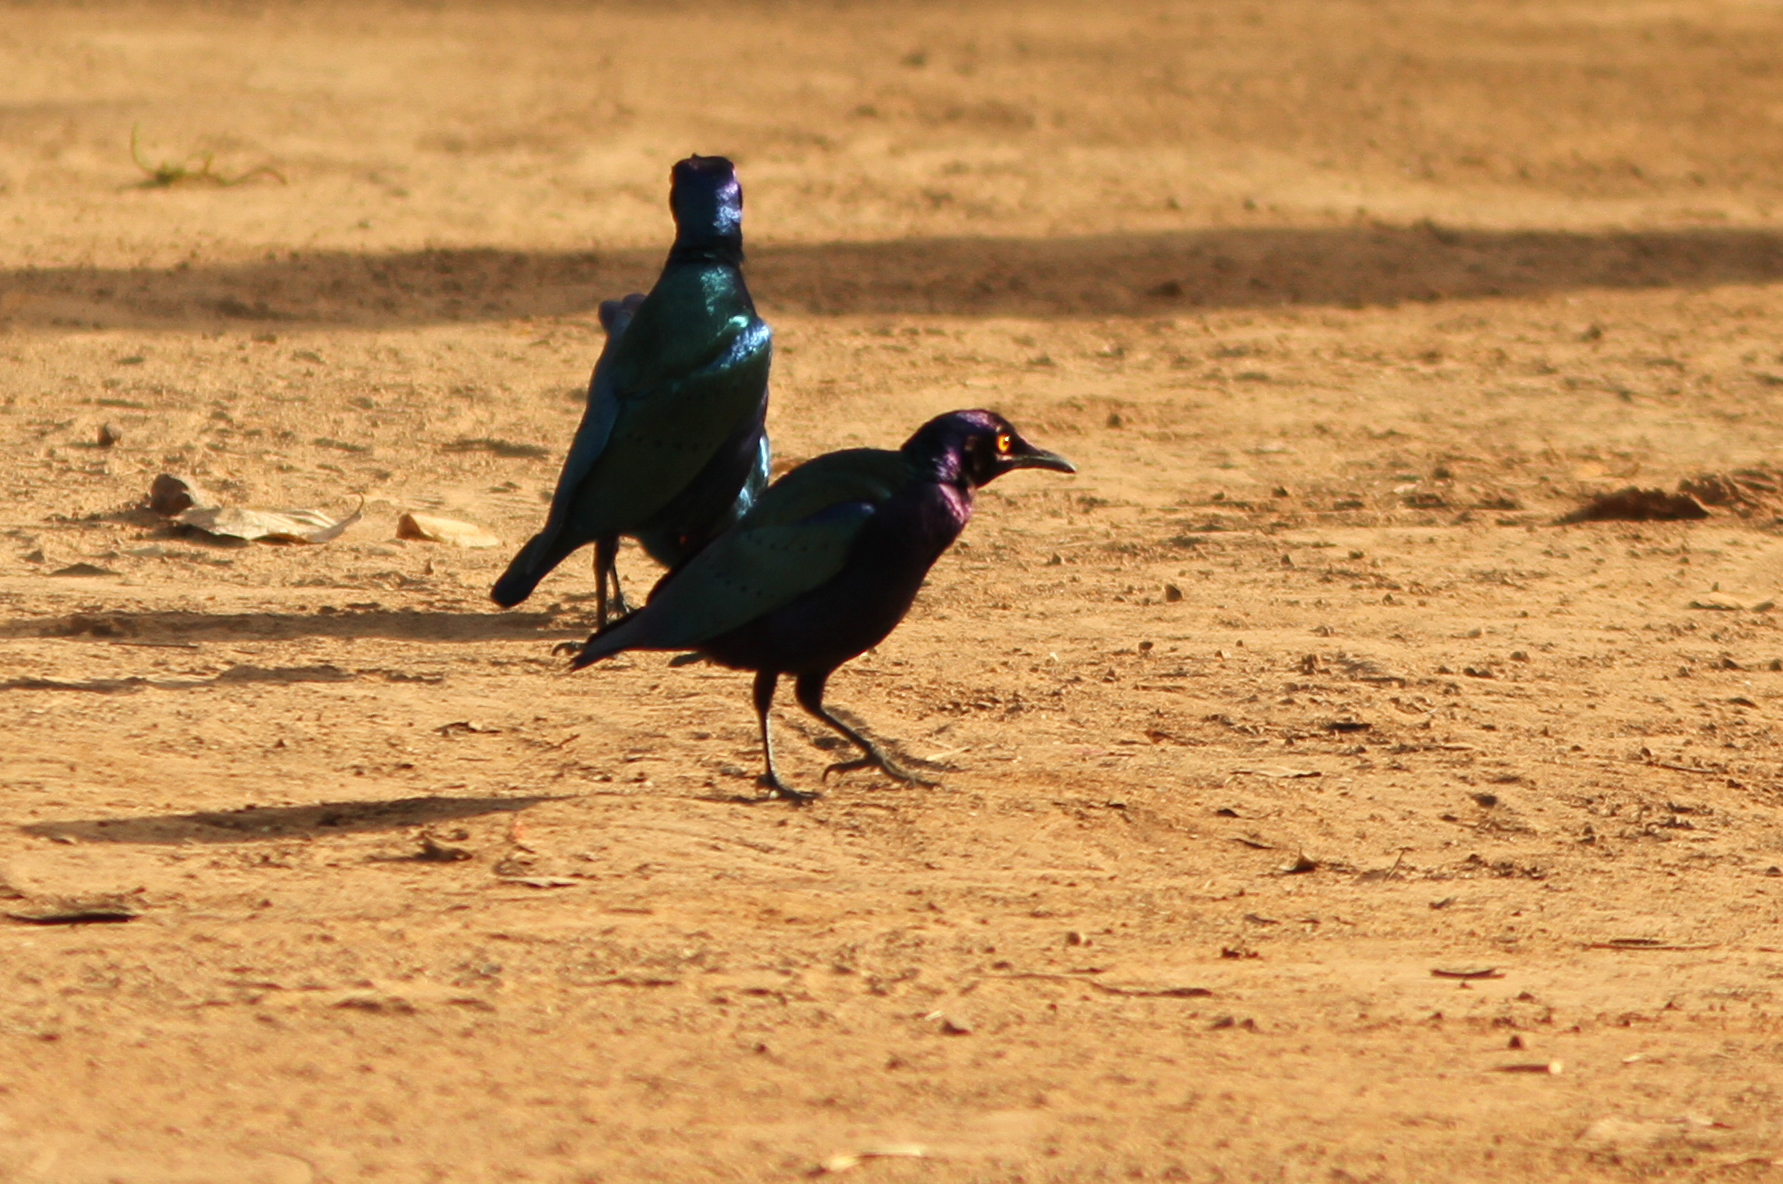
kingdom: Animalia
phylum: Chordata
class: Aves
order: Passeriformes
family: Sturnidae
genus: Lamprotornis
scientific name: Lamprotornis purpureus
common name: Purple starling
